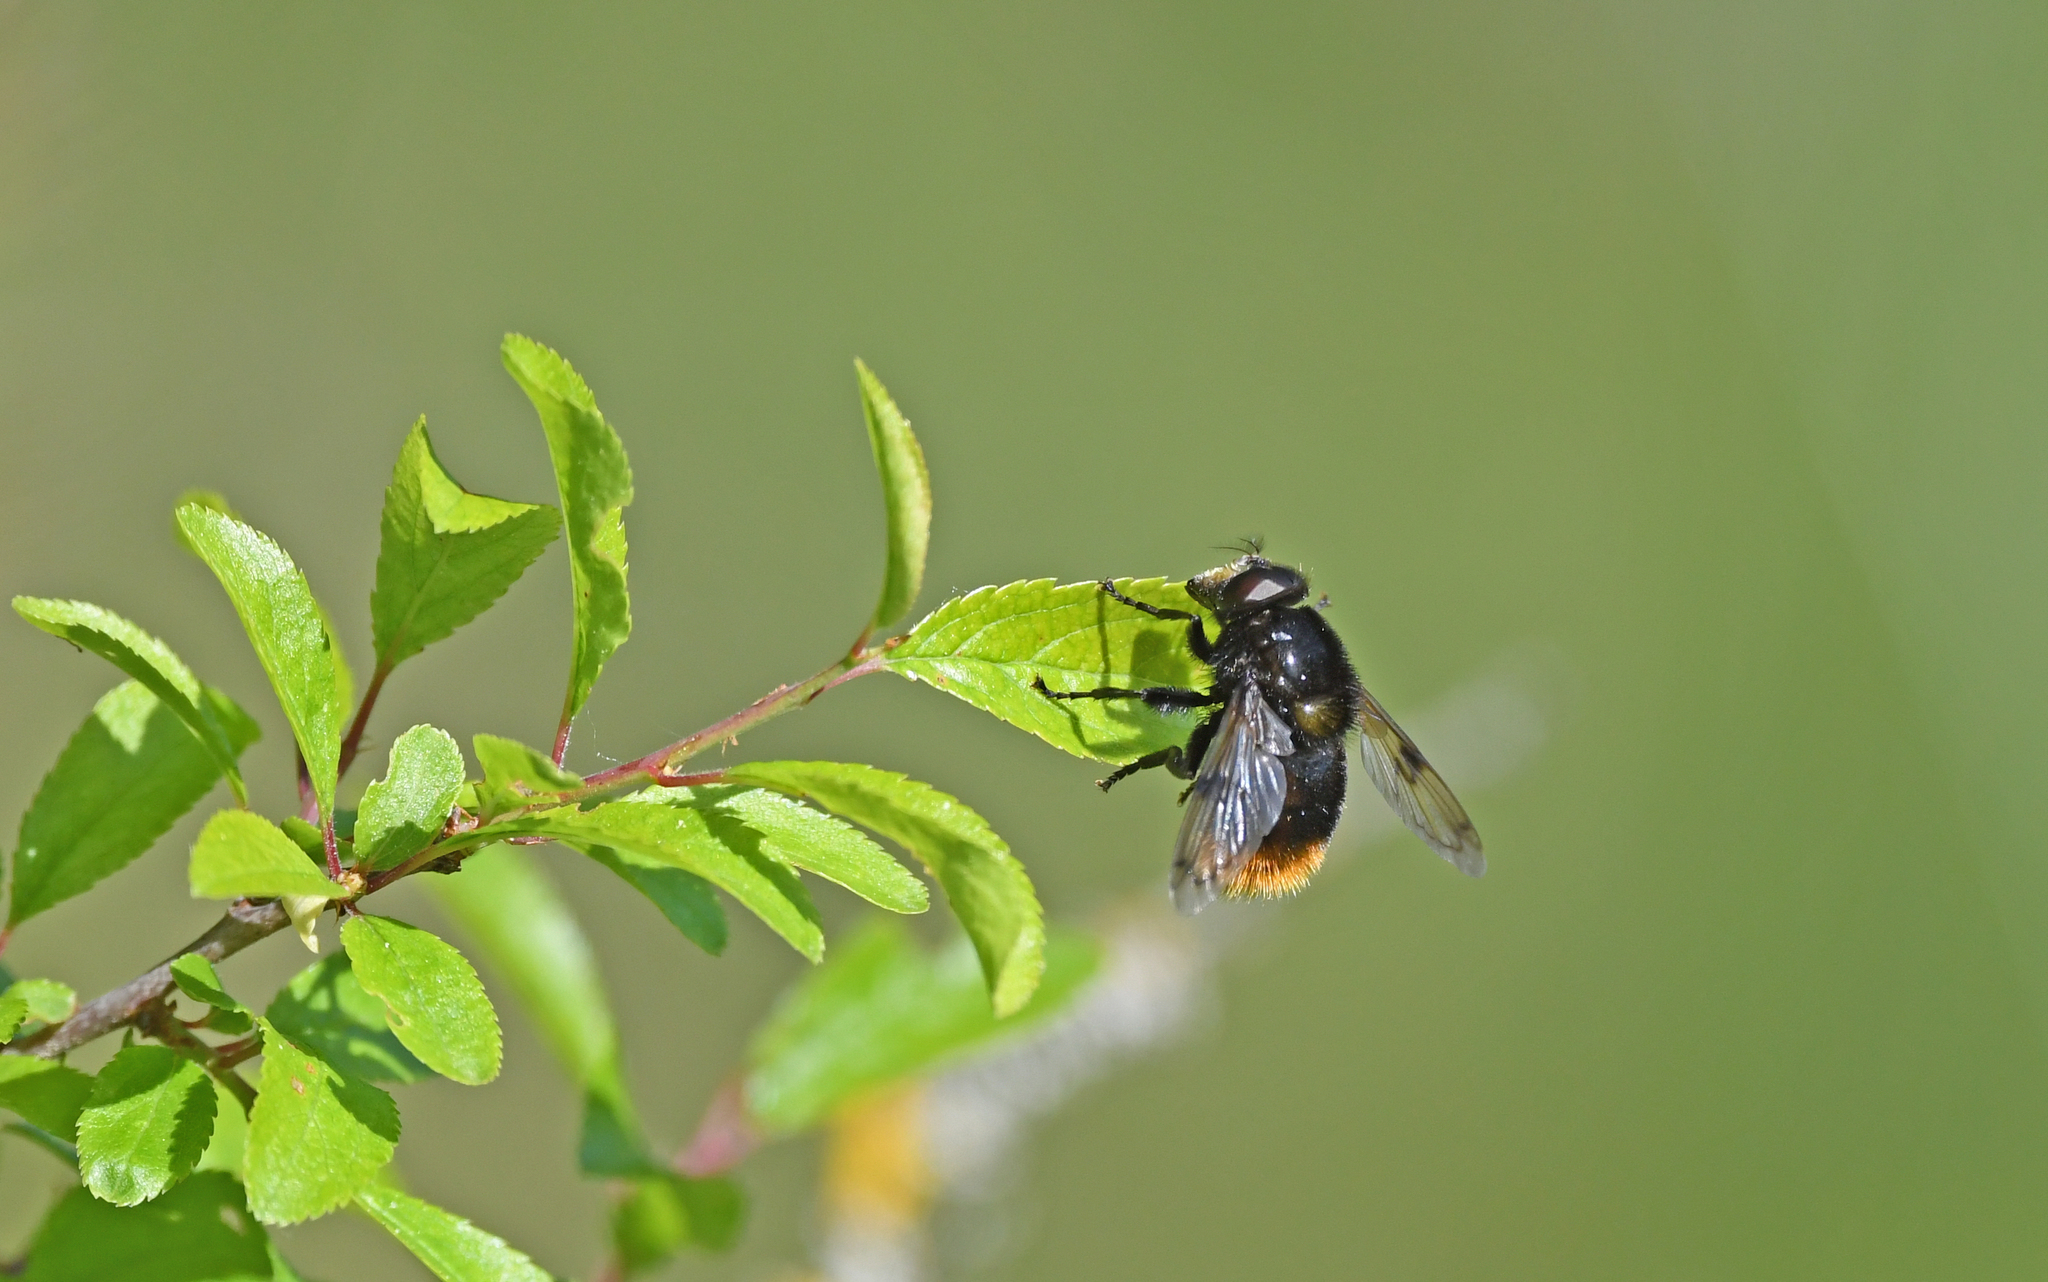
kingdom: Animalia
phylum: Arthropoda
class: Insecta
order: Diptera
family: Syrphidae
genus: Volucella
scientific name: Volucella bombylans
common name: Bumble bee hover fly
